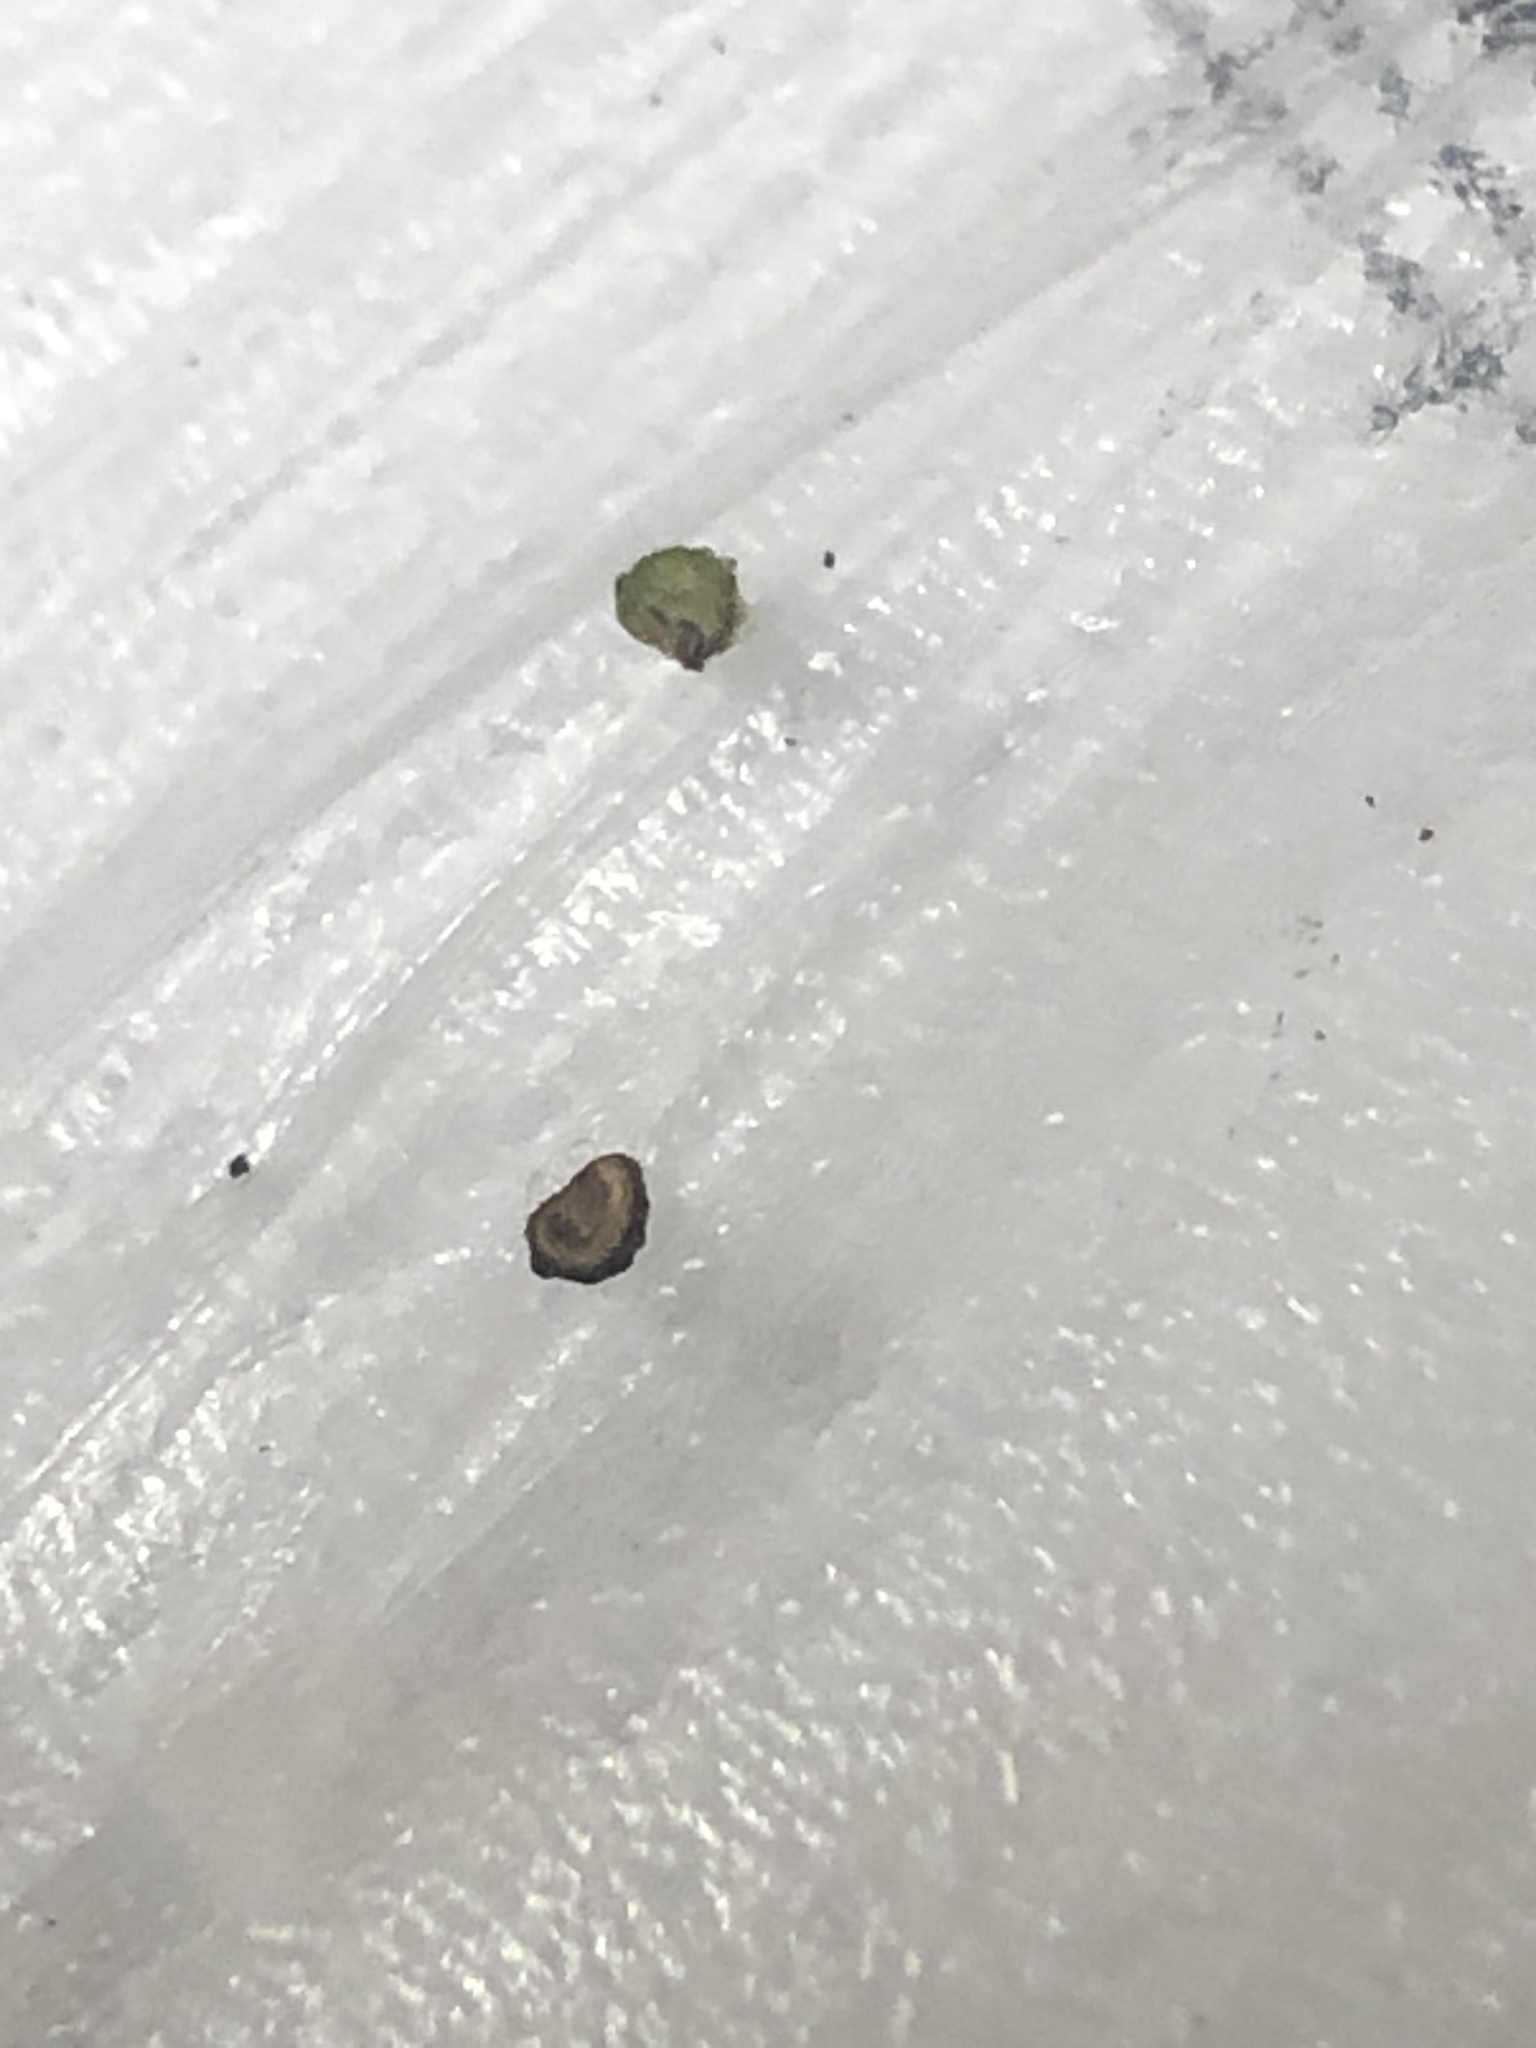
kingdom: Plantae
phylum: Tracheophyta
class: Liliopsida
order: Alismatales
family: Potamogetonaceae
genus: Potamogeton
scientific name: Potamogeton foliosus
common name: Leafy pondweed
